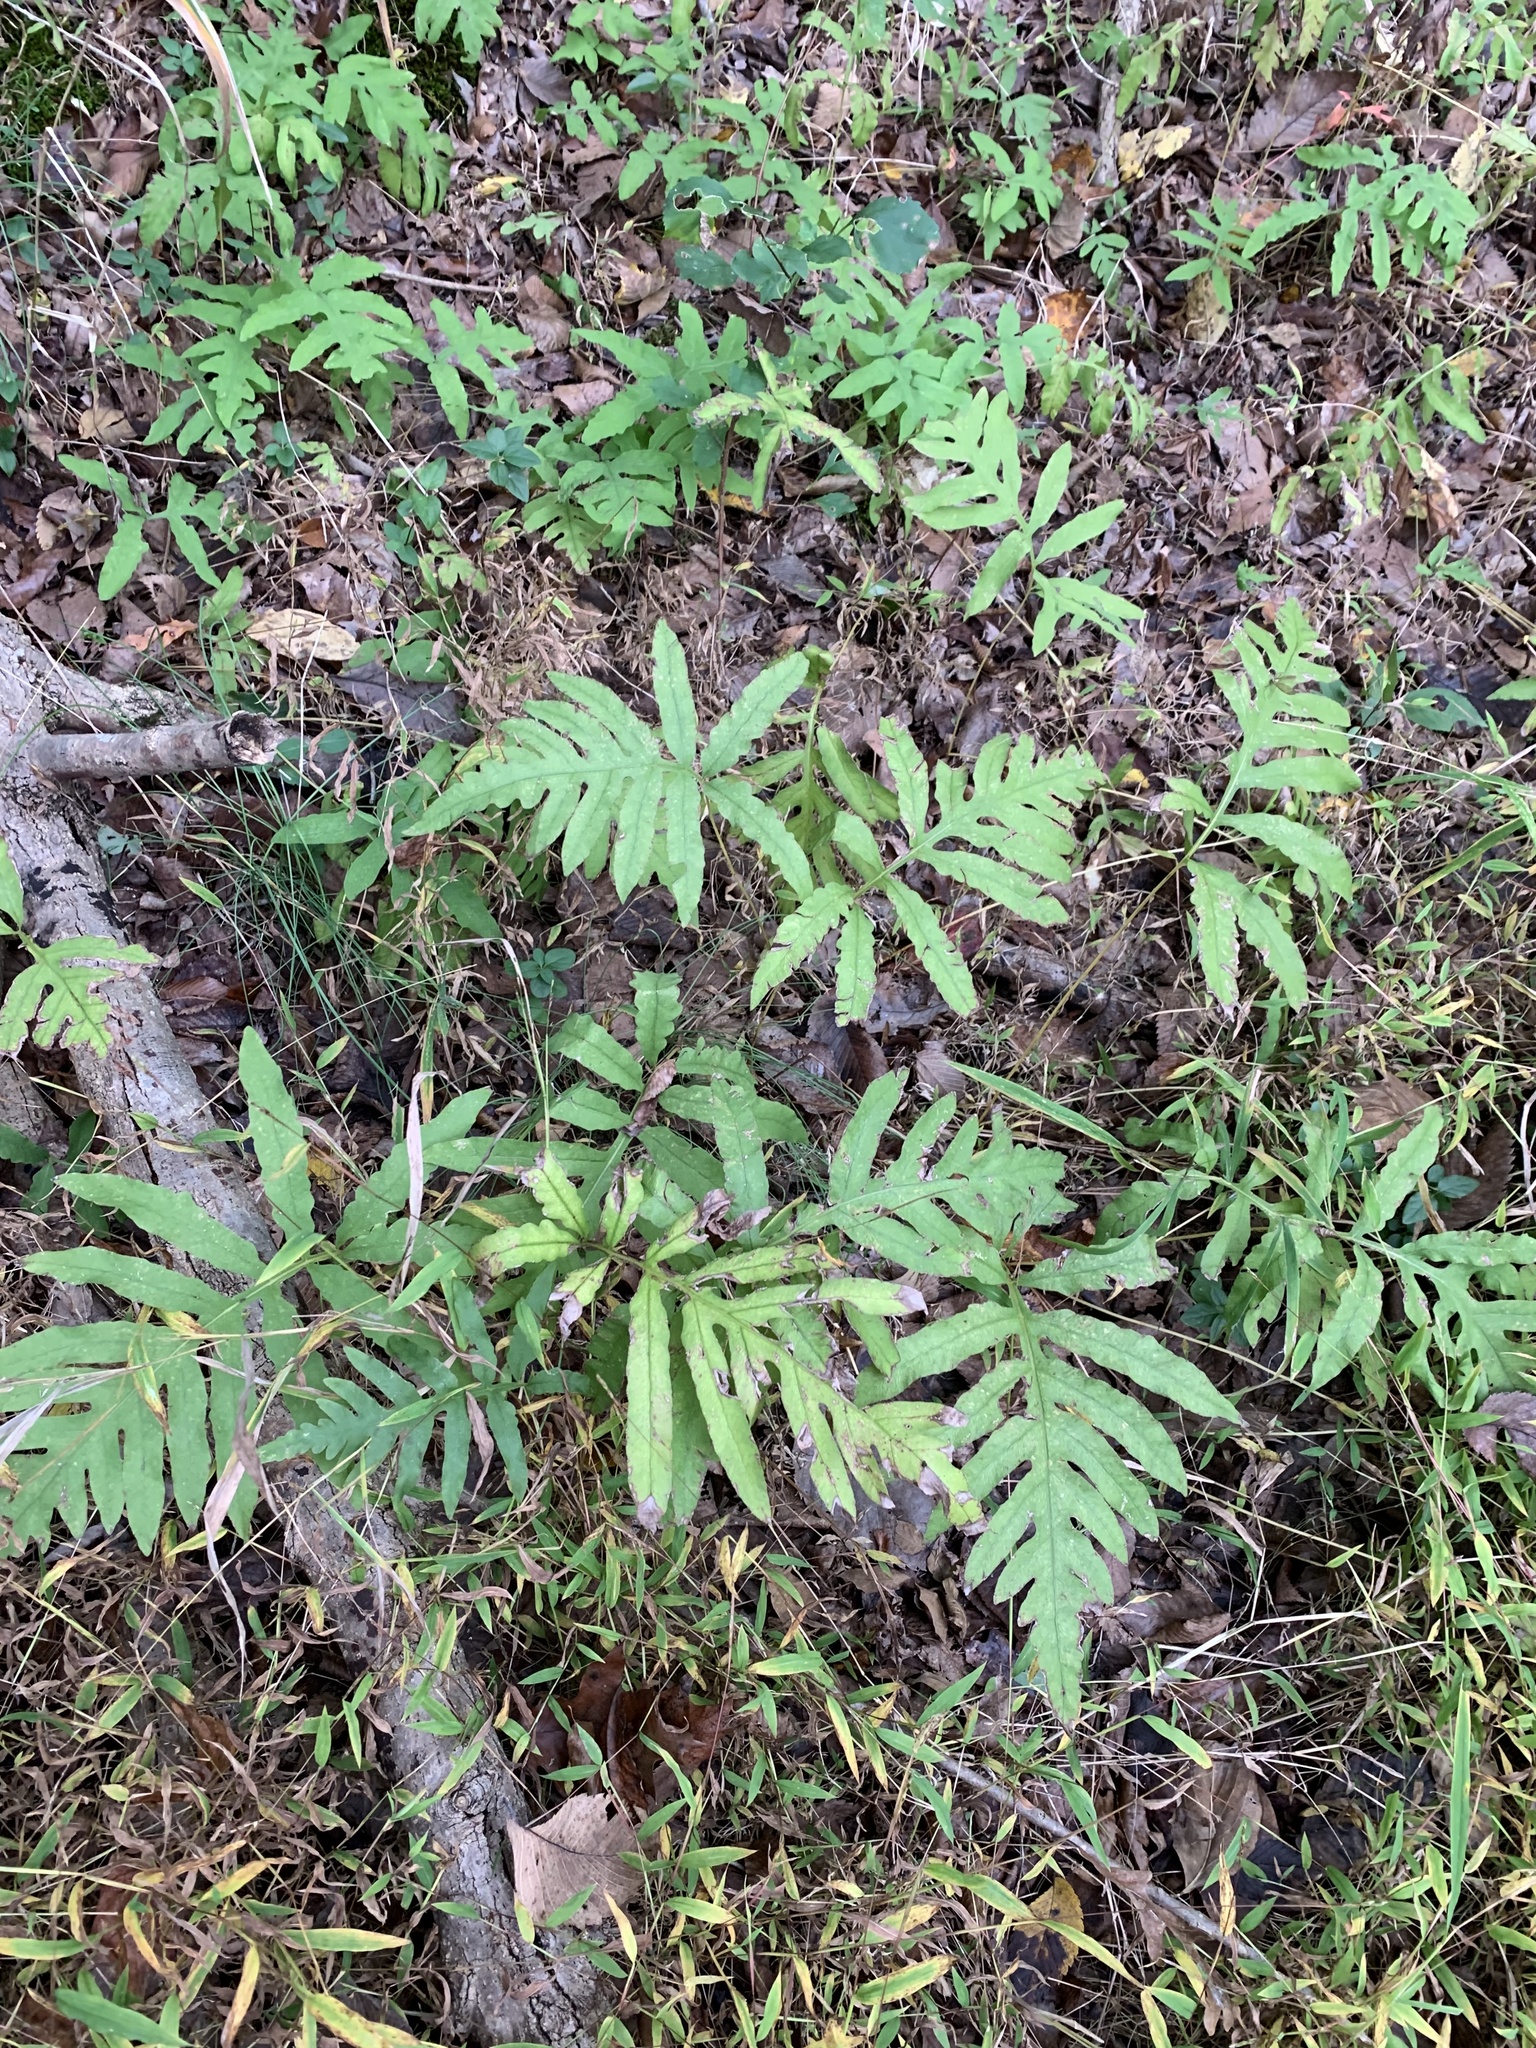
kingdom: Plantae
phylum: Tracheophyta
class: Polypodiopsida
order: Polypodiales
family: Onocleaceae
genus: Onoclea
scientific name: Onoclea sensibilis
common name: Sensitive fern
